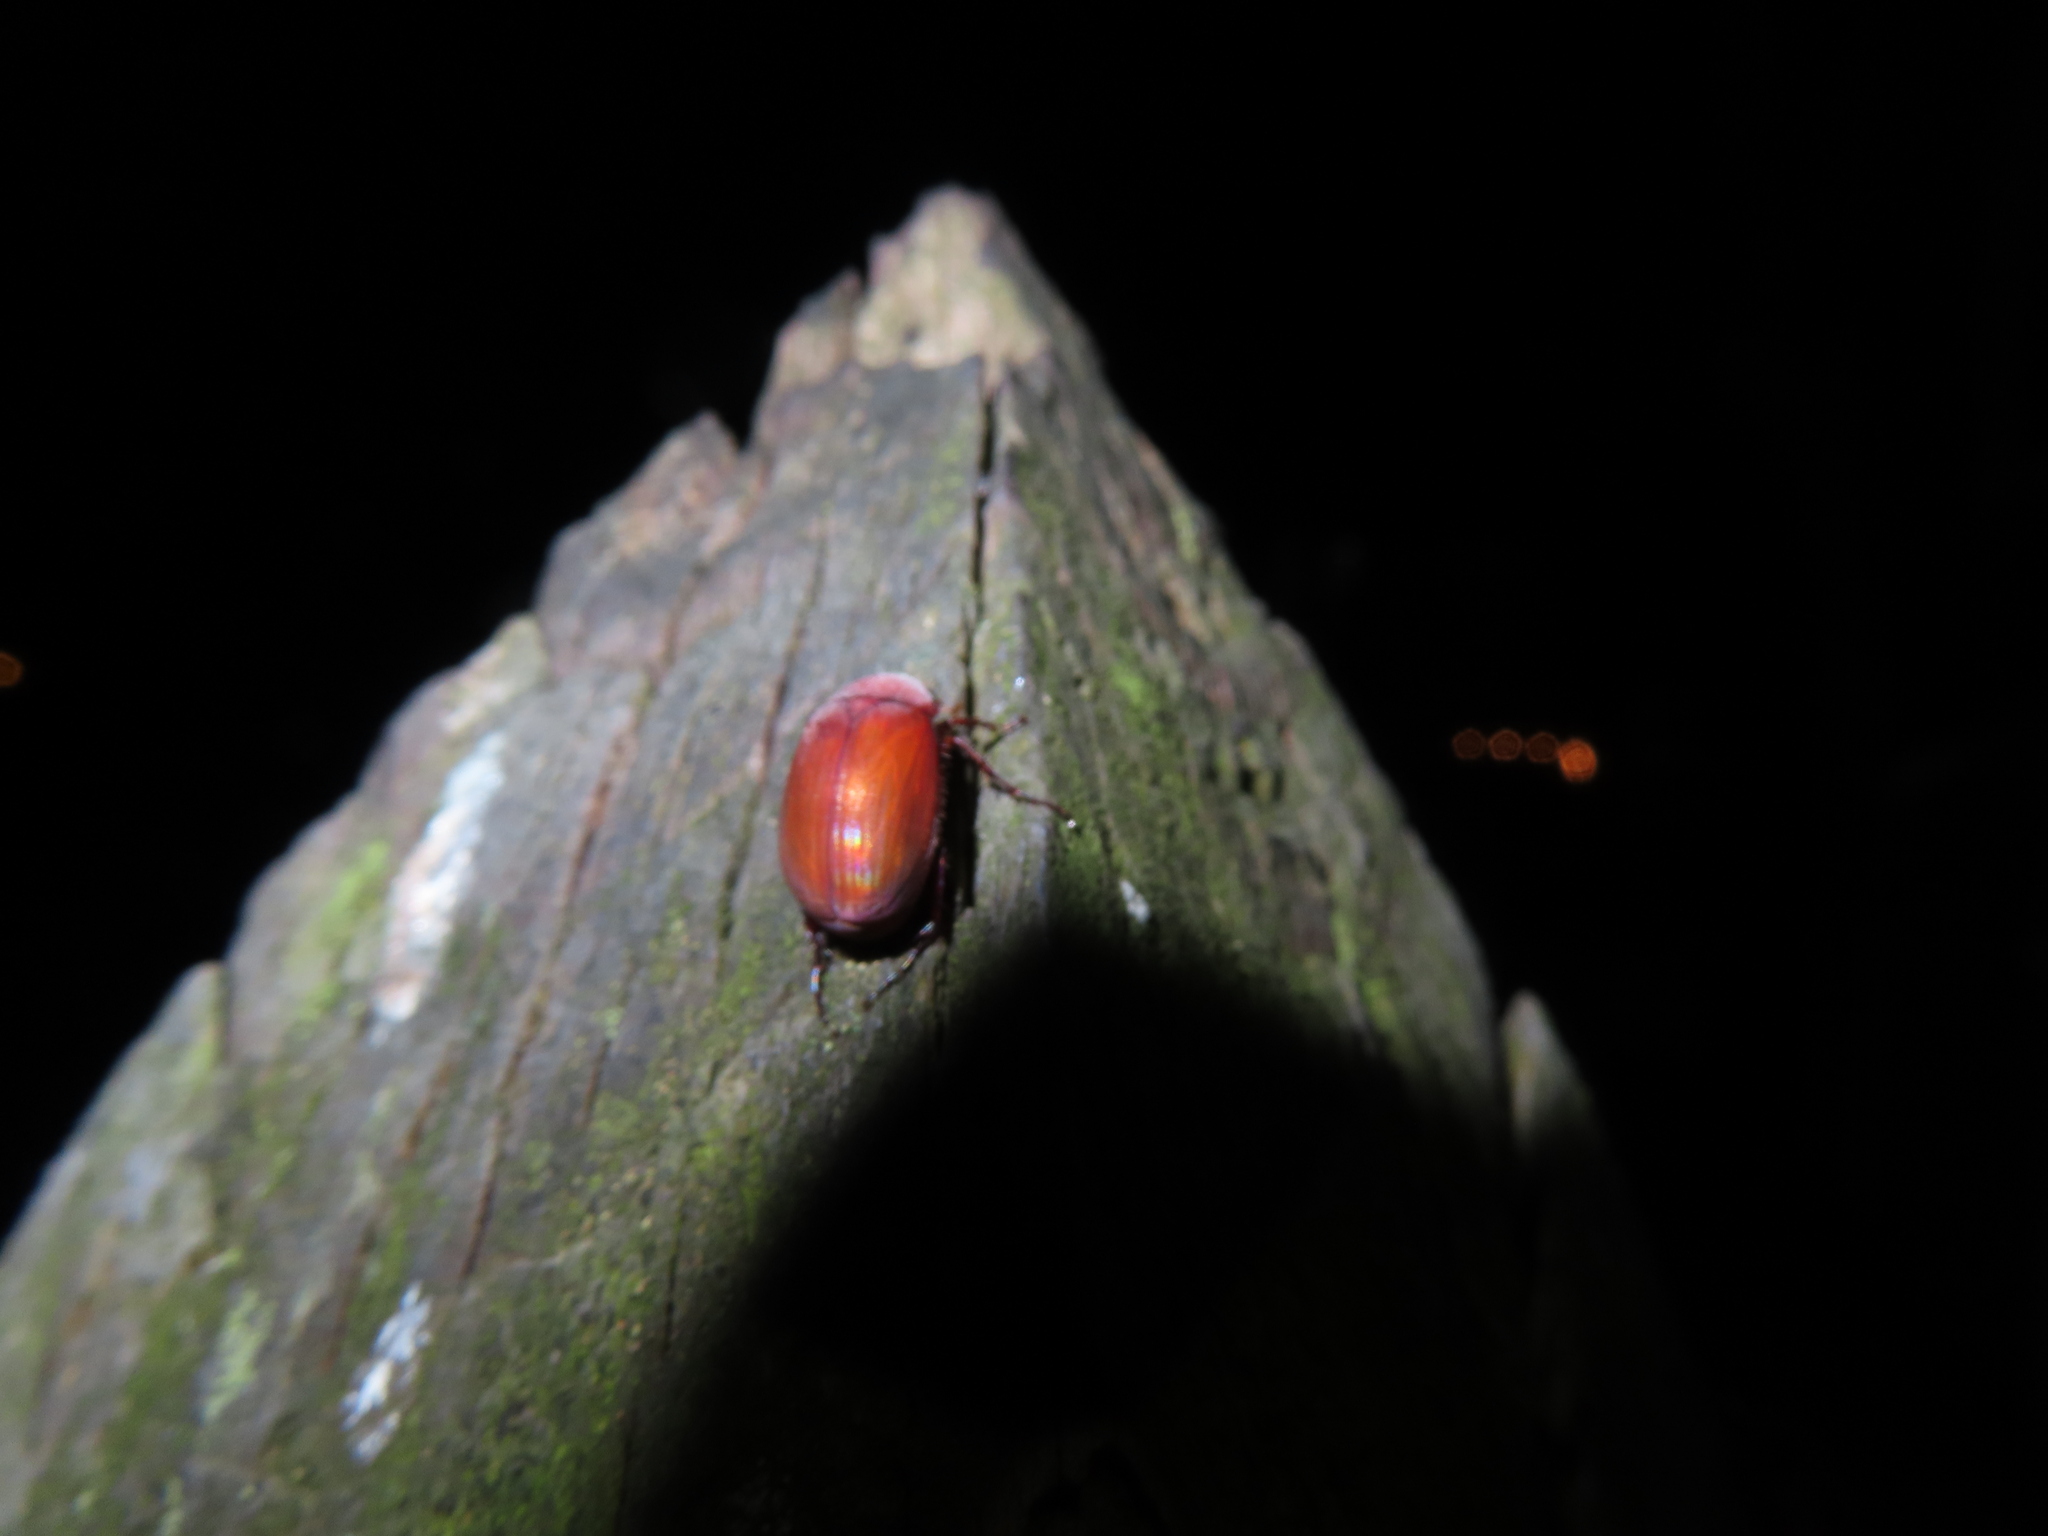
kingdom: Animalia
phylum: Arthropoda
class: Insecta
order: Coleoptera
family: Scarabaeidae
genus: Maladera
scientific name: Maladera formosae
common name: Asiatic garden beetle
